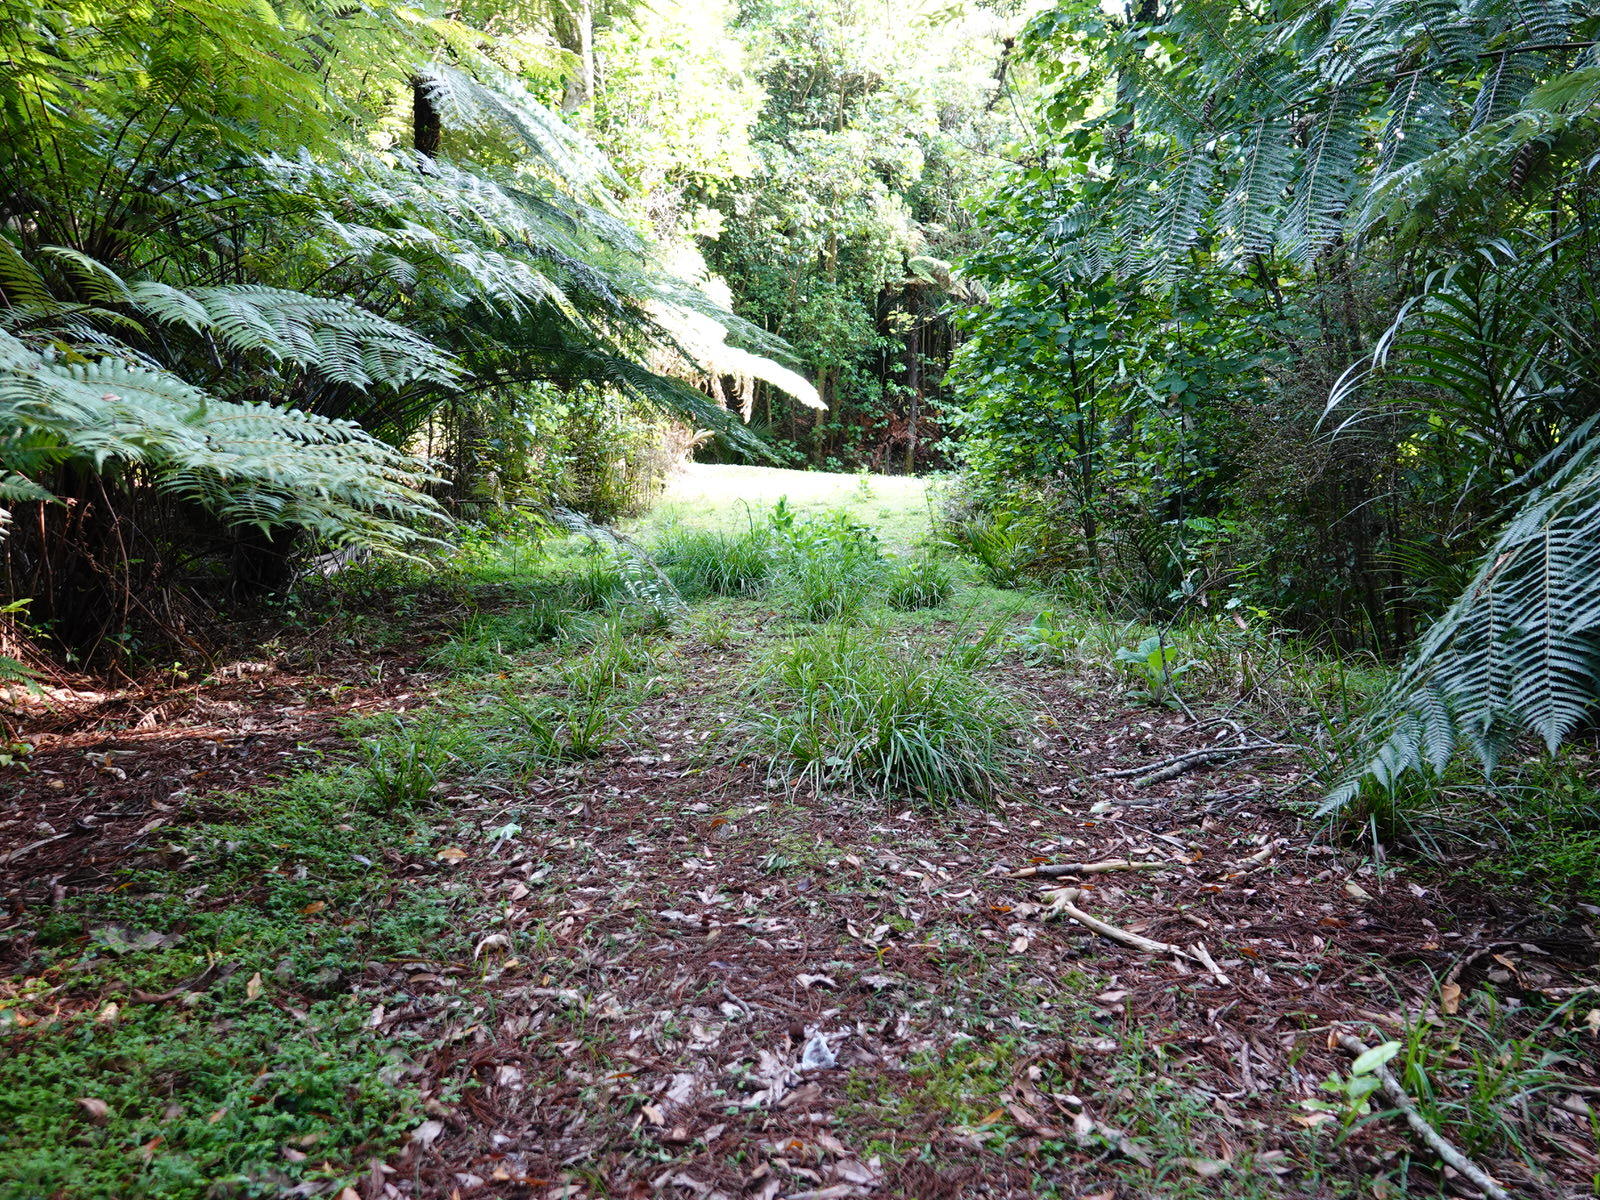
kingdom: Animalia
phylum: Chordata
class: Squamata
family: Diplodactylidae
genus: Mokopirirakau
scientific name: Mokopirirakau granulatus
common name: Forest gecko
